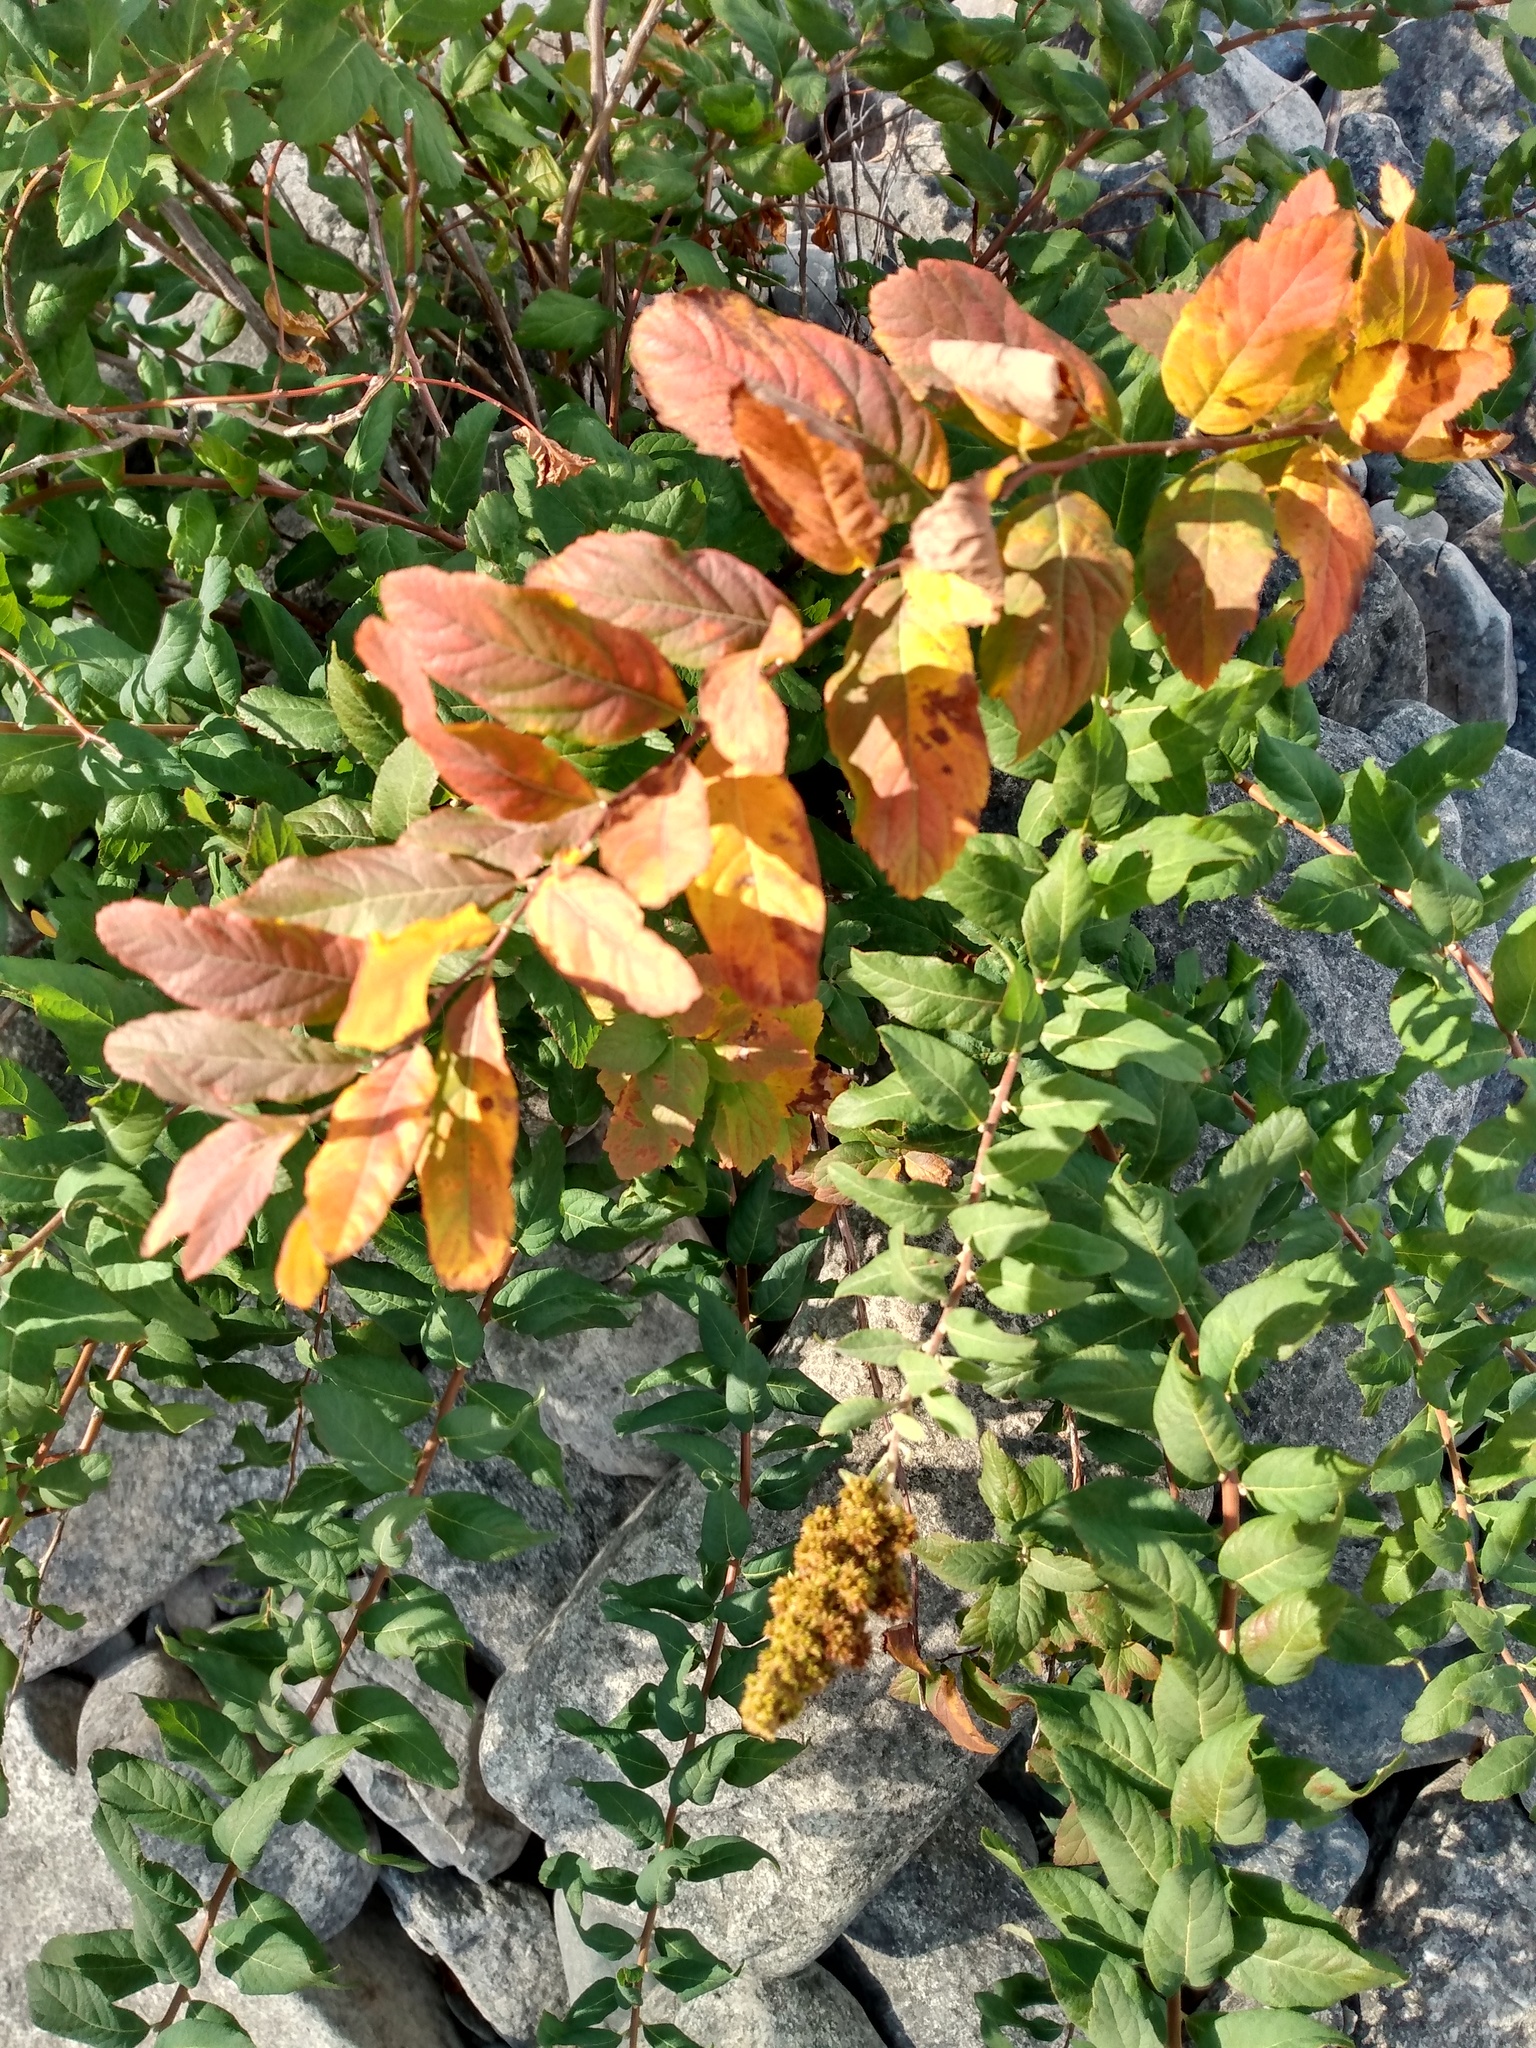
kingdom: Plantae
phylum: Tracheophyta
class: Magnoliopsida
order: Rosales
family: Rosaceae
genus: Spiraea
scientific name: Spiraea douglasii
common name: Steeplebush
